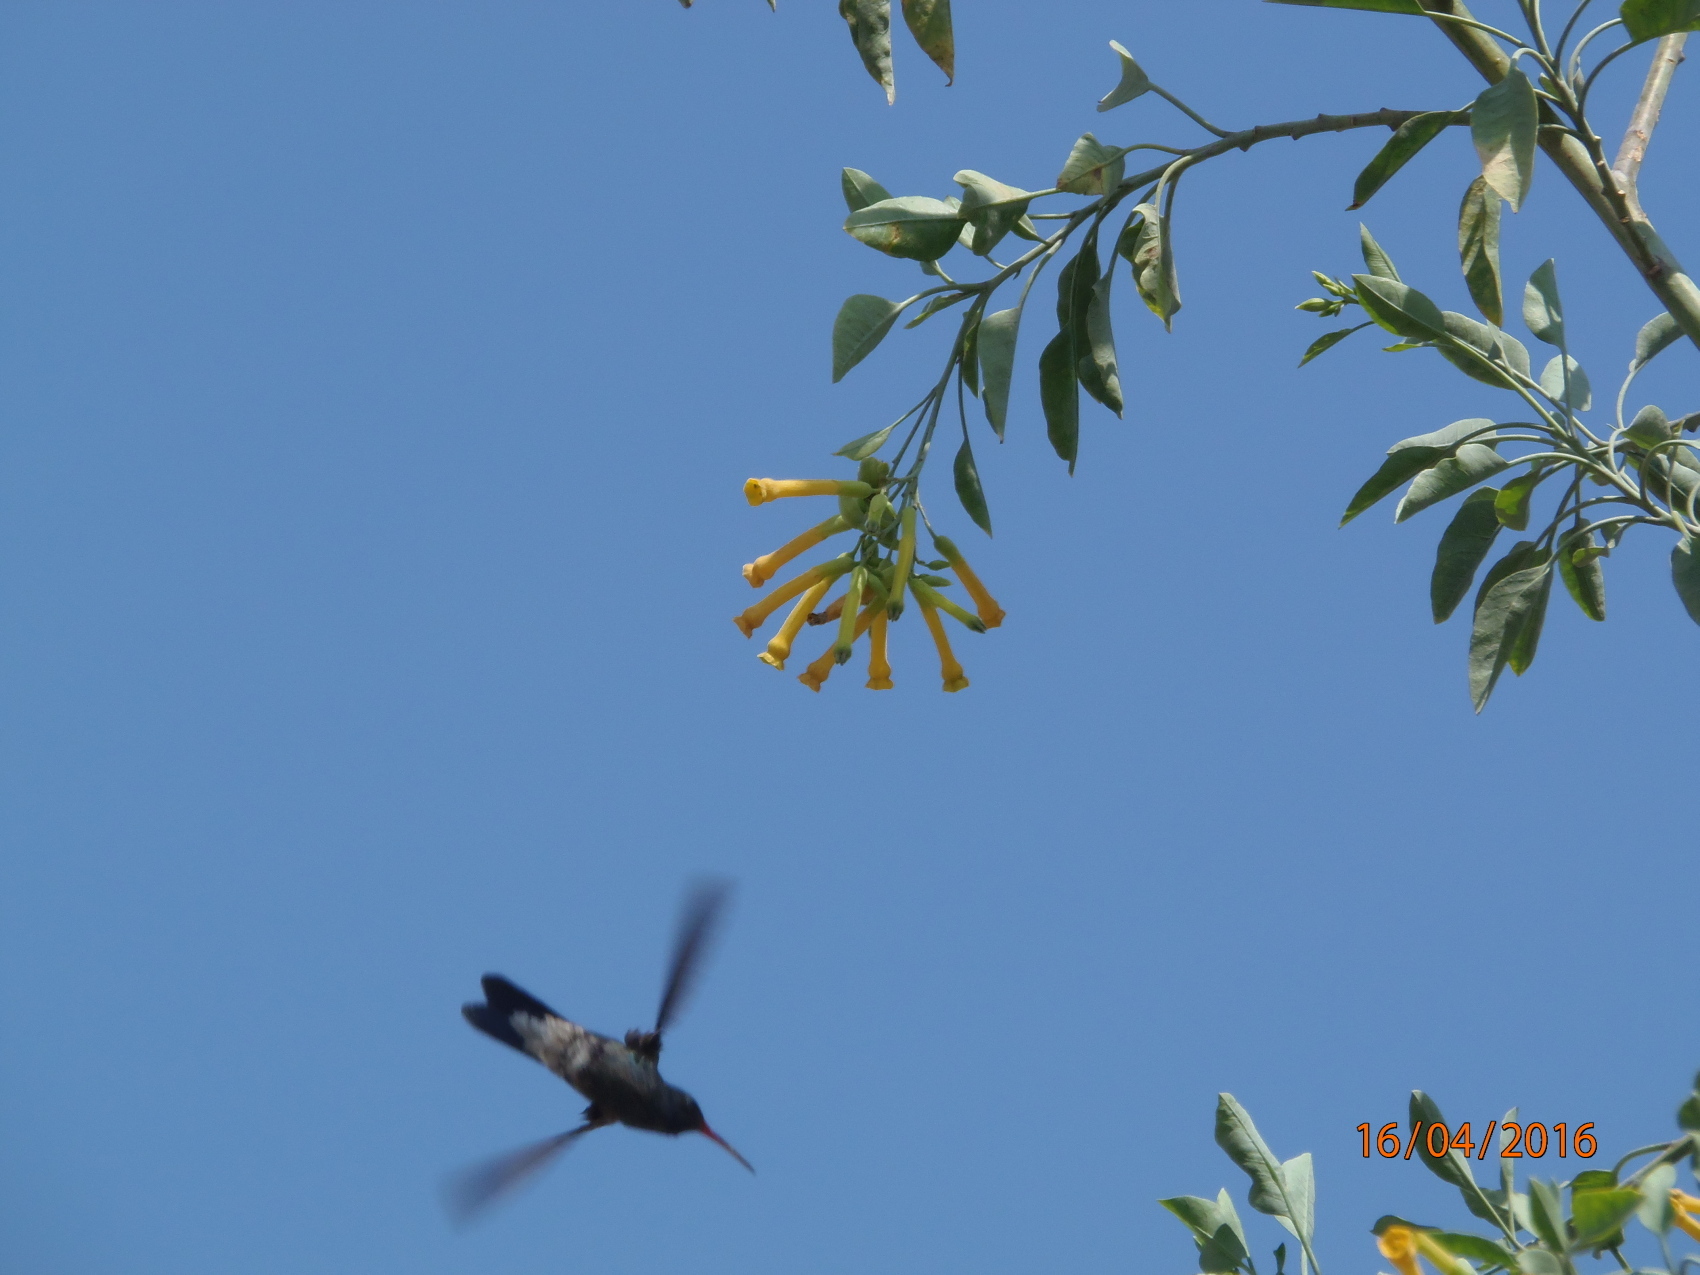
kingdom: Animalia
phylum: Chordata
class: Aves
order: Apodiformes
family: Trochilidae
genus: Cynanthus
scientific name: Cynanthus latirostris
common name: Broad-billed hummingbird
